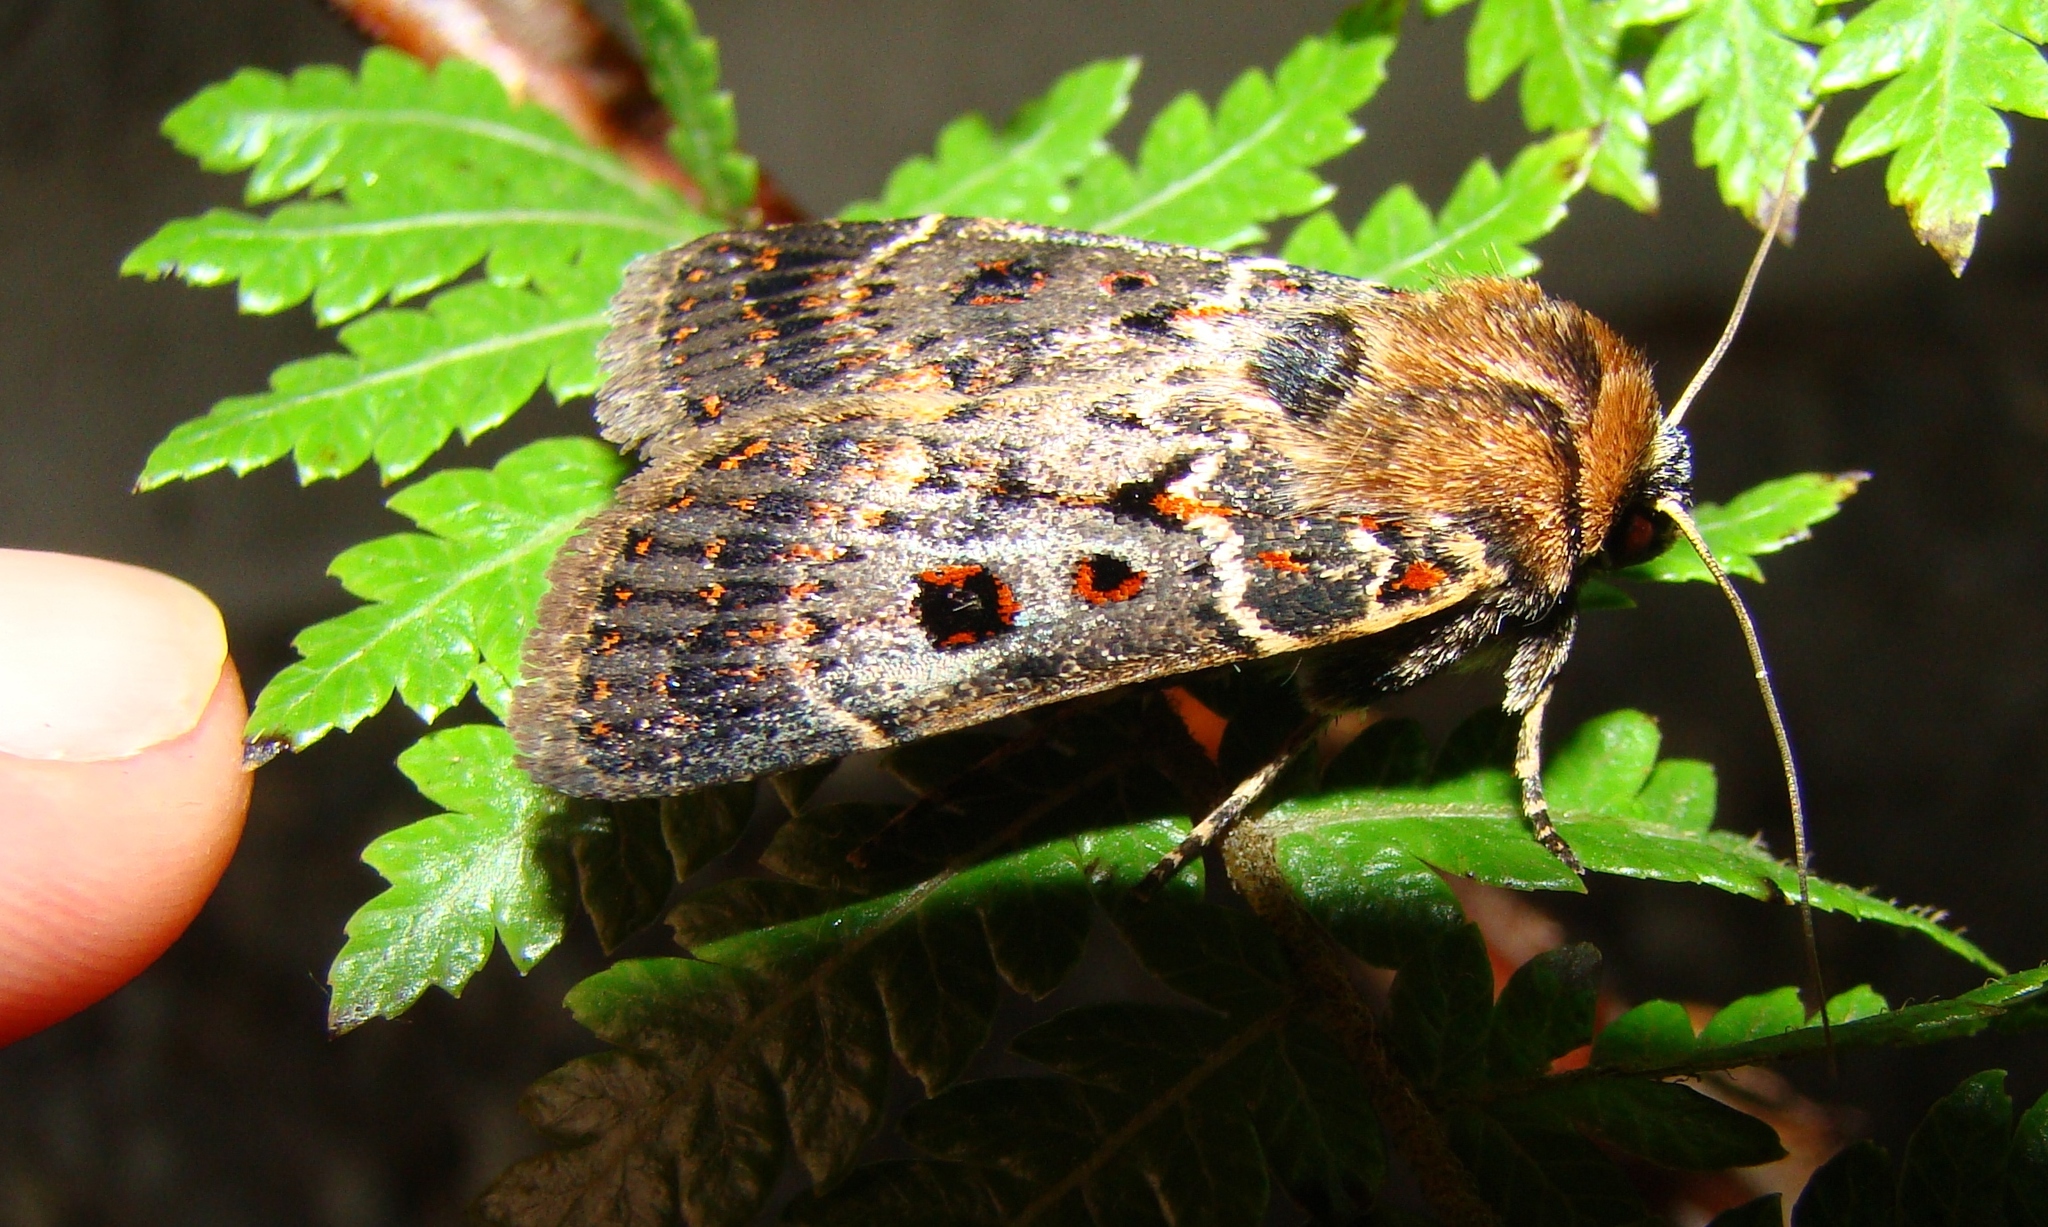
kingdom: Animalia
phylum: Arthropoda
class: Insecta
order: Lepidoptera
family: Noctuidae
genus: Proteuxoa
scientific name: Proteuxoa sanguinipuncta
